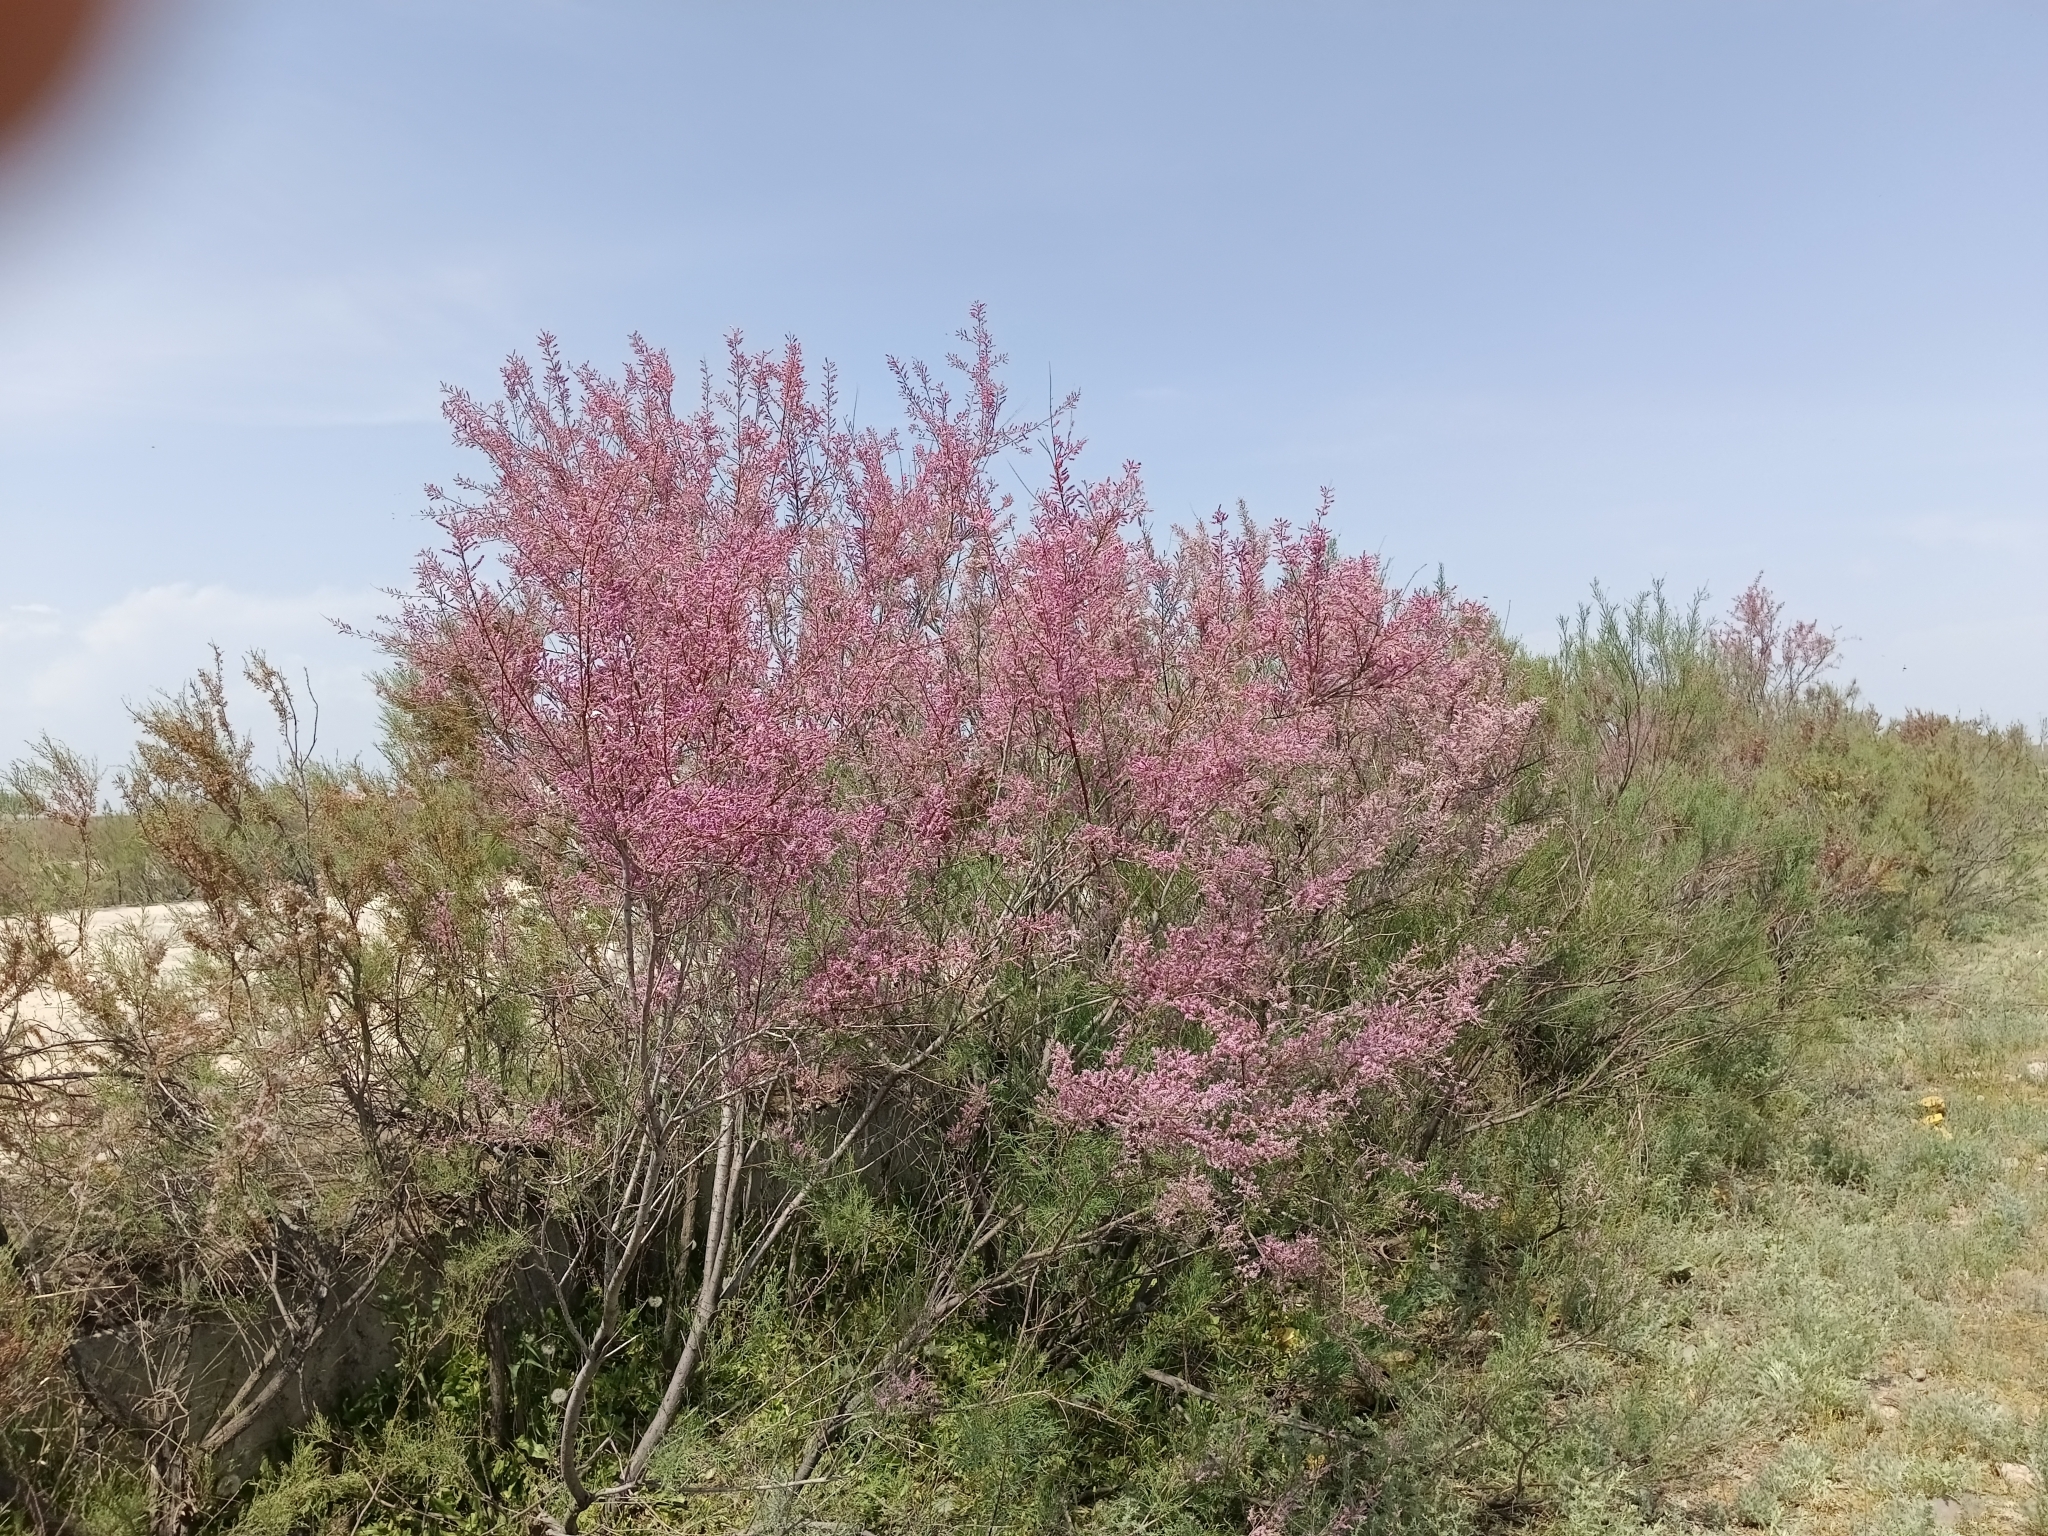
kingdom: Plantae
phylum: Tracheophyta
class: Magnoliopsida
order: Caryophyllales
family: Tamaricaceae
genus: Tamarix
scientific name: Tamarix ramosissima
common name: Pink tamarisk
